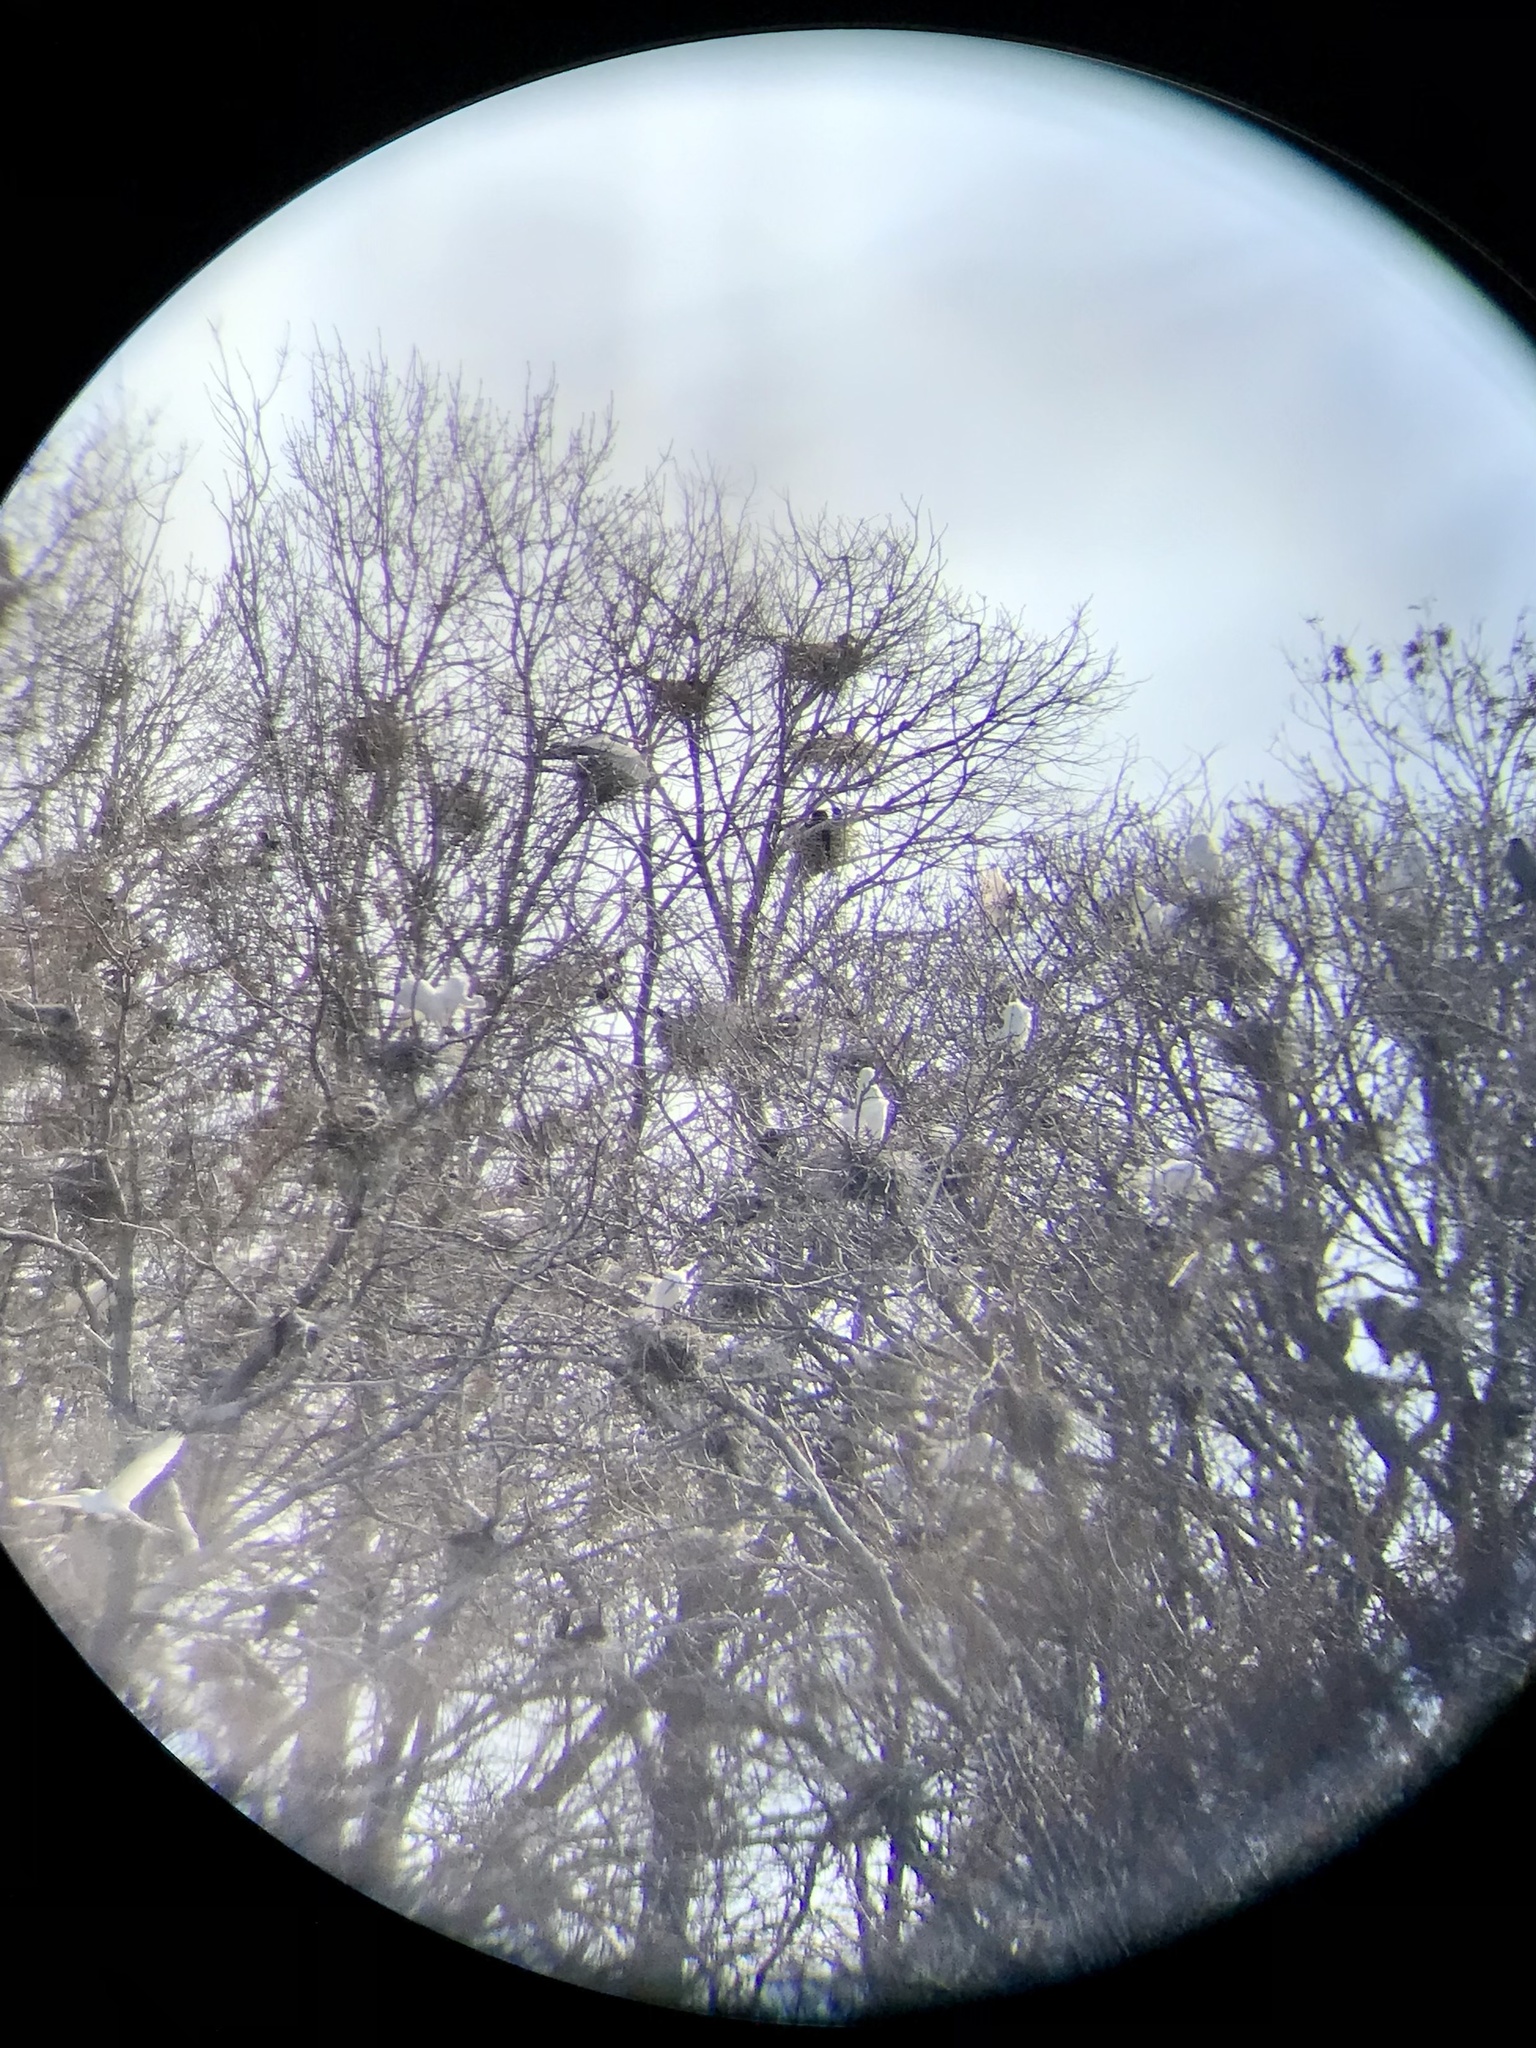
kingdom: Animalia
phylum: Chordata
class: Aves
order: Pelecaniformes
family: Ardeidae
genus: Ardea
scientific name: Ardea herodias
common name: Great blue heron
